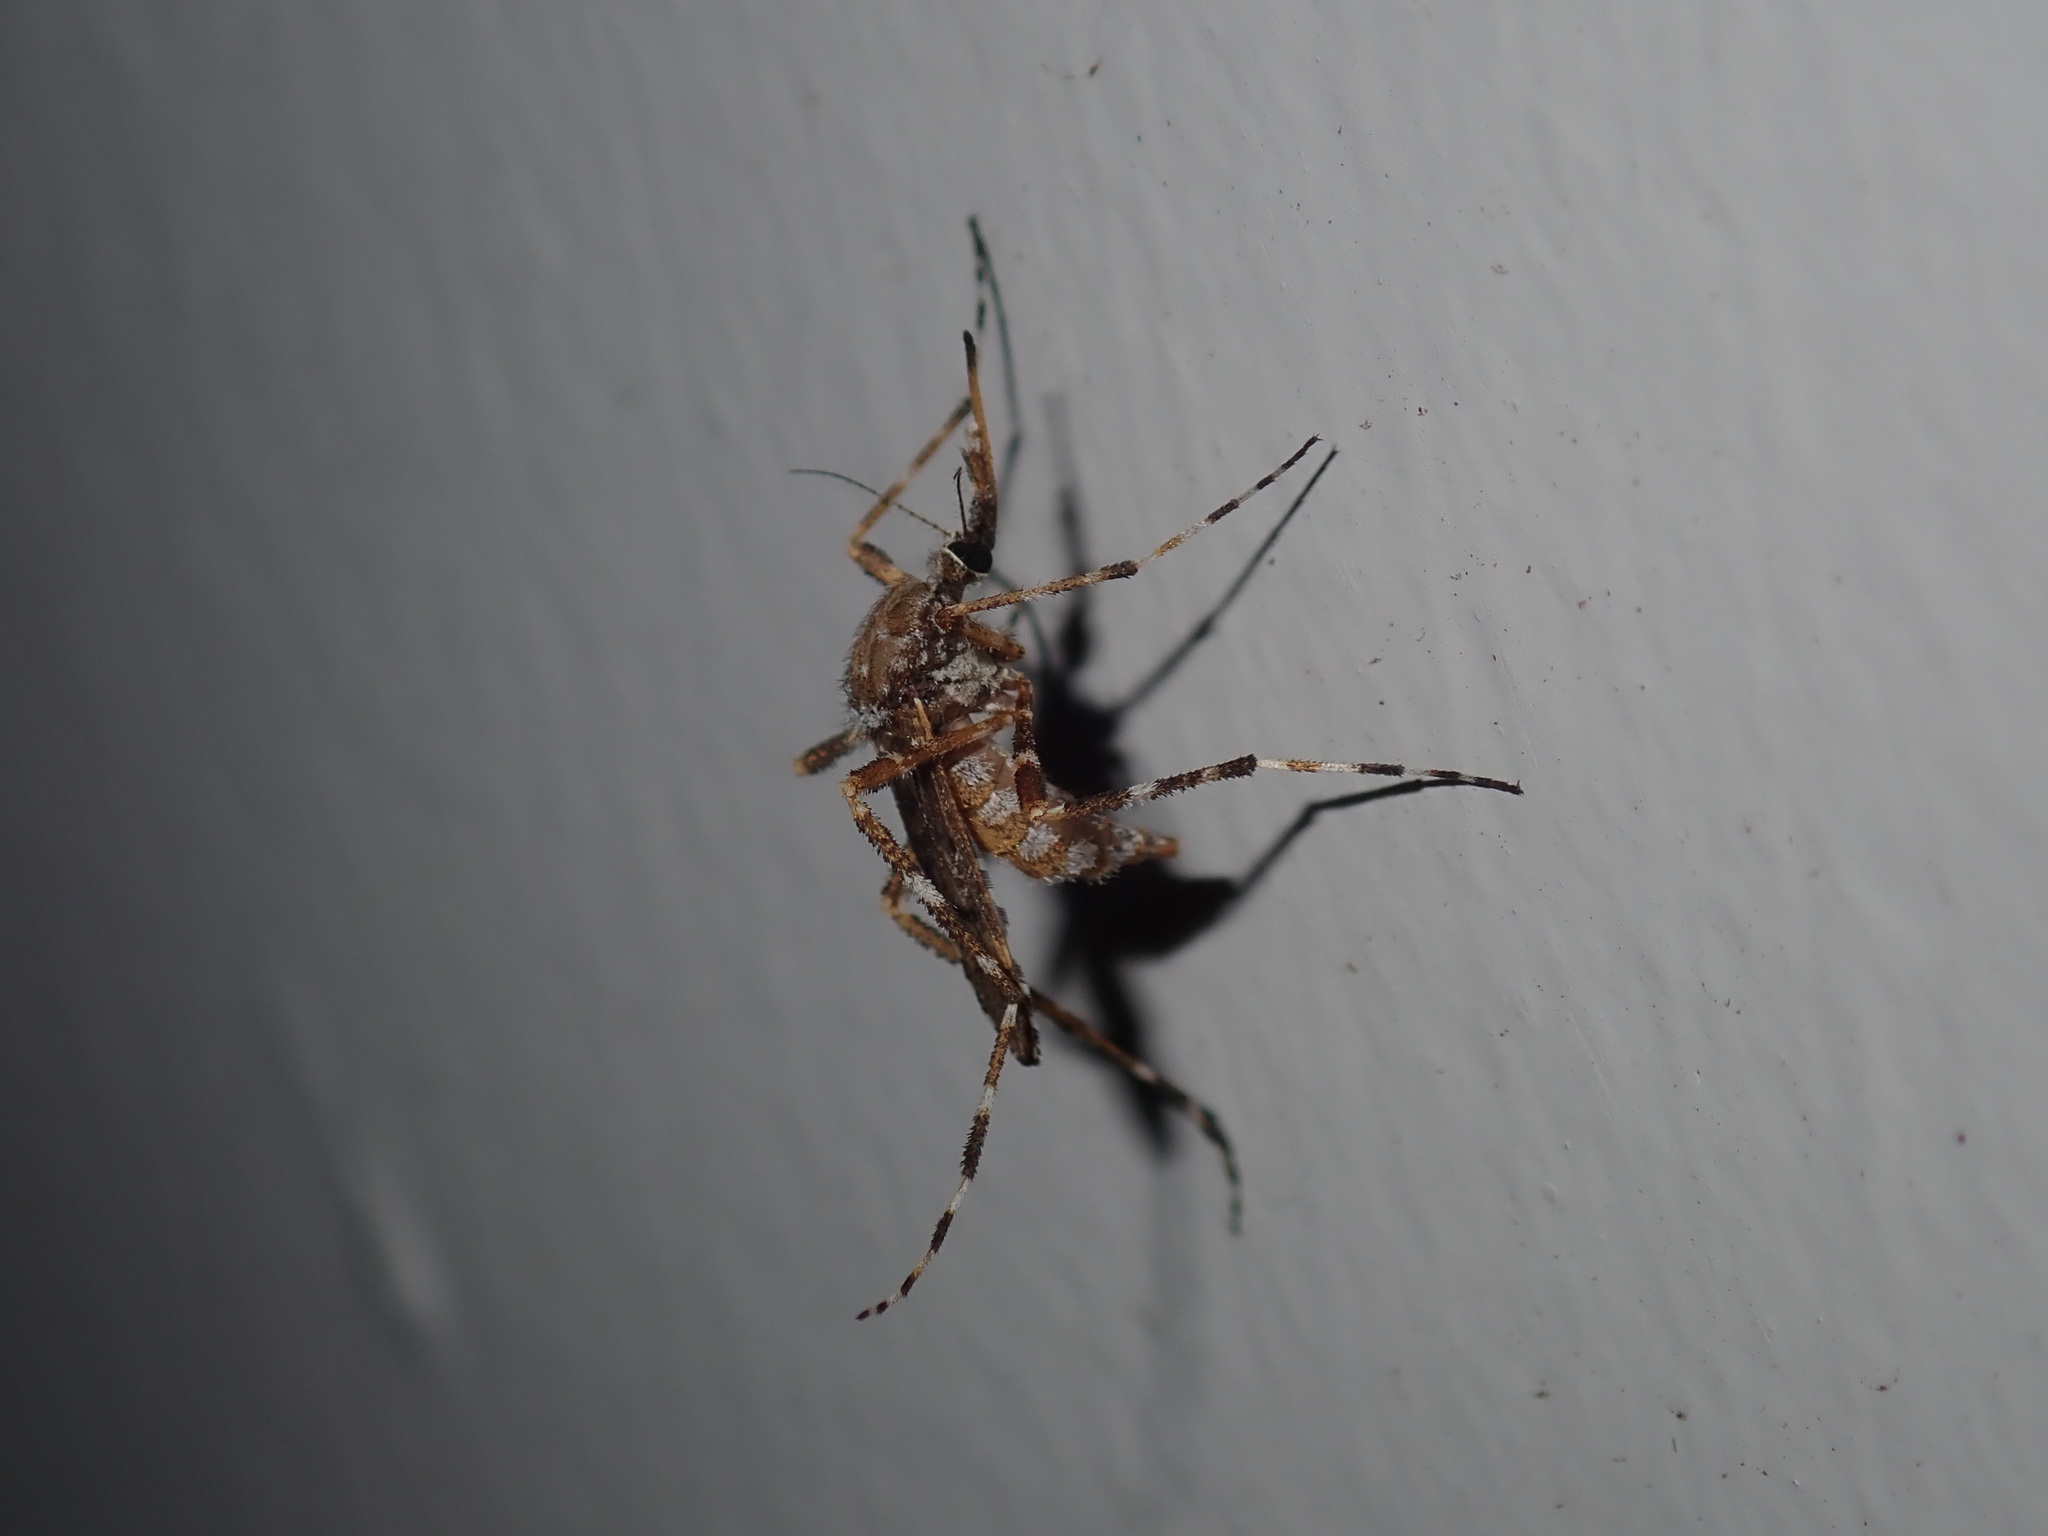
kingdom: Animalia
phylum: Arthropoda
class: Insecta
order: Diptera
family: Culicidae
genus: Aedes
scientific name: Aedes alternans
